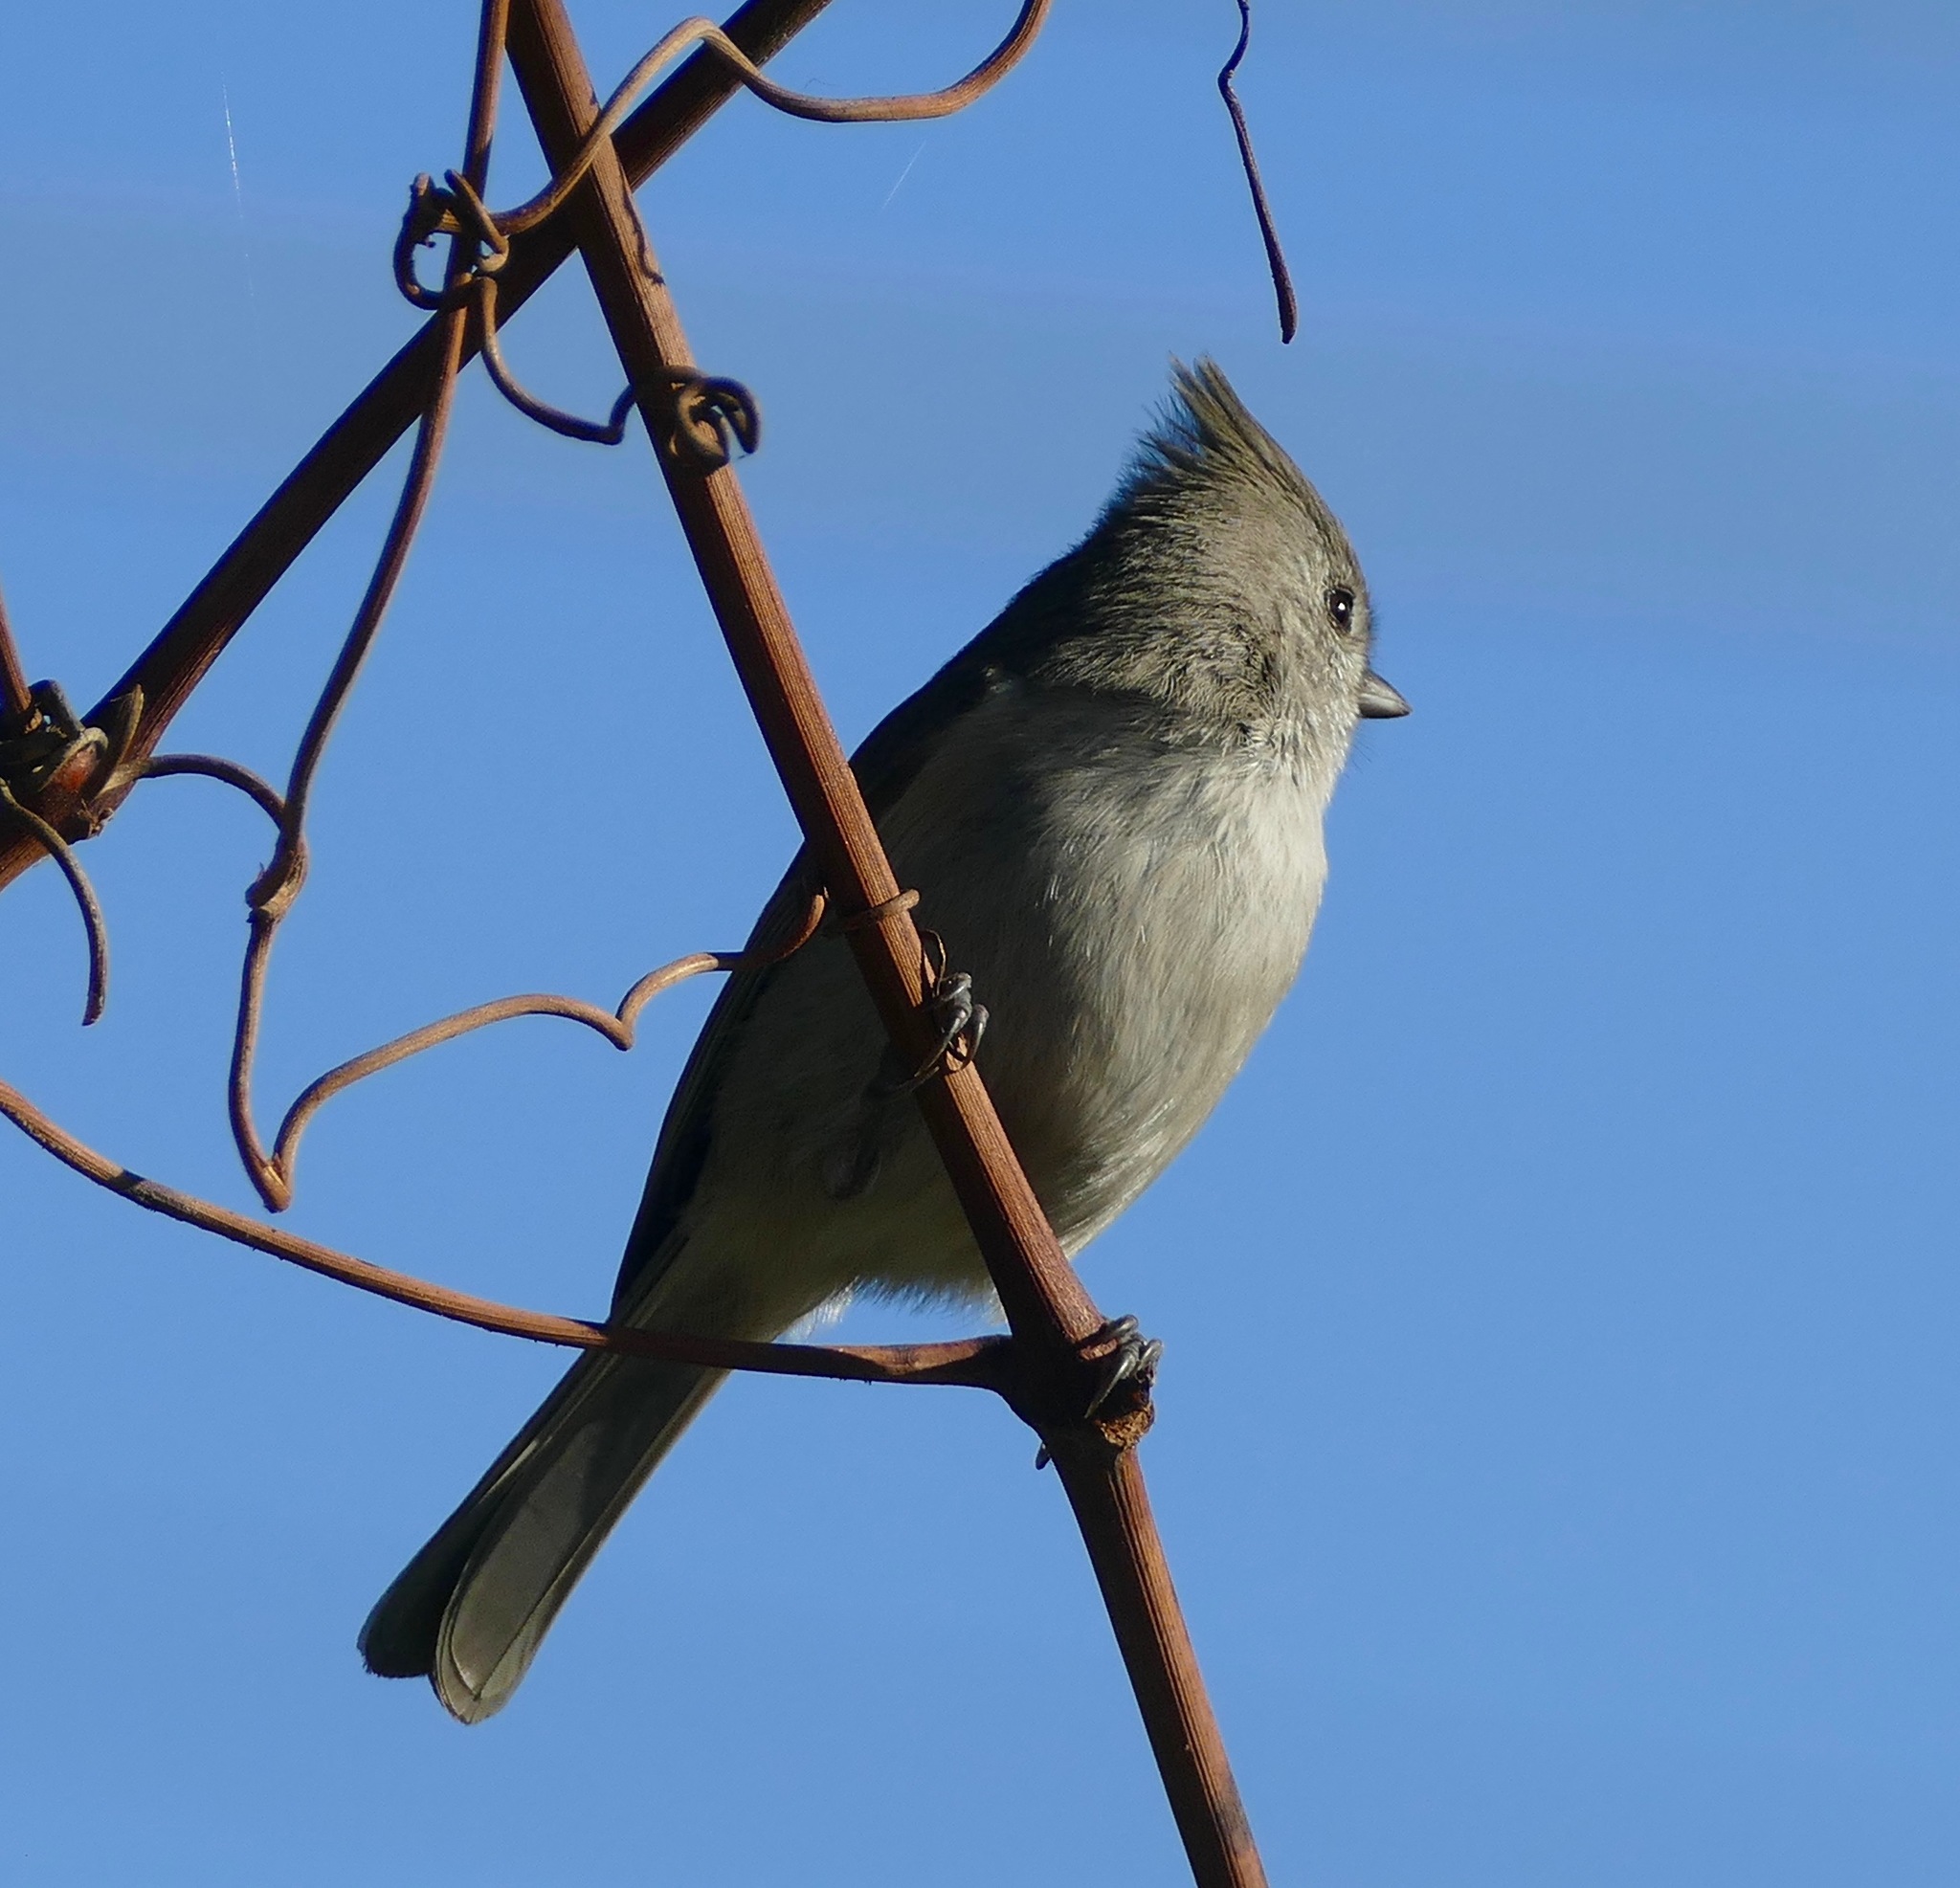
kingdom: Animalia
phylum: Chordata
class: Aves
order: Passeriformes
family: Paridae
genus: Baeolophus
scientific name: Baeolophus inornatus
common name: Oak titmouse
